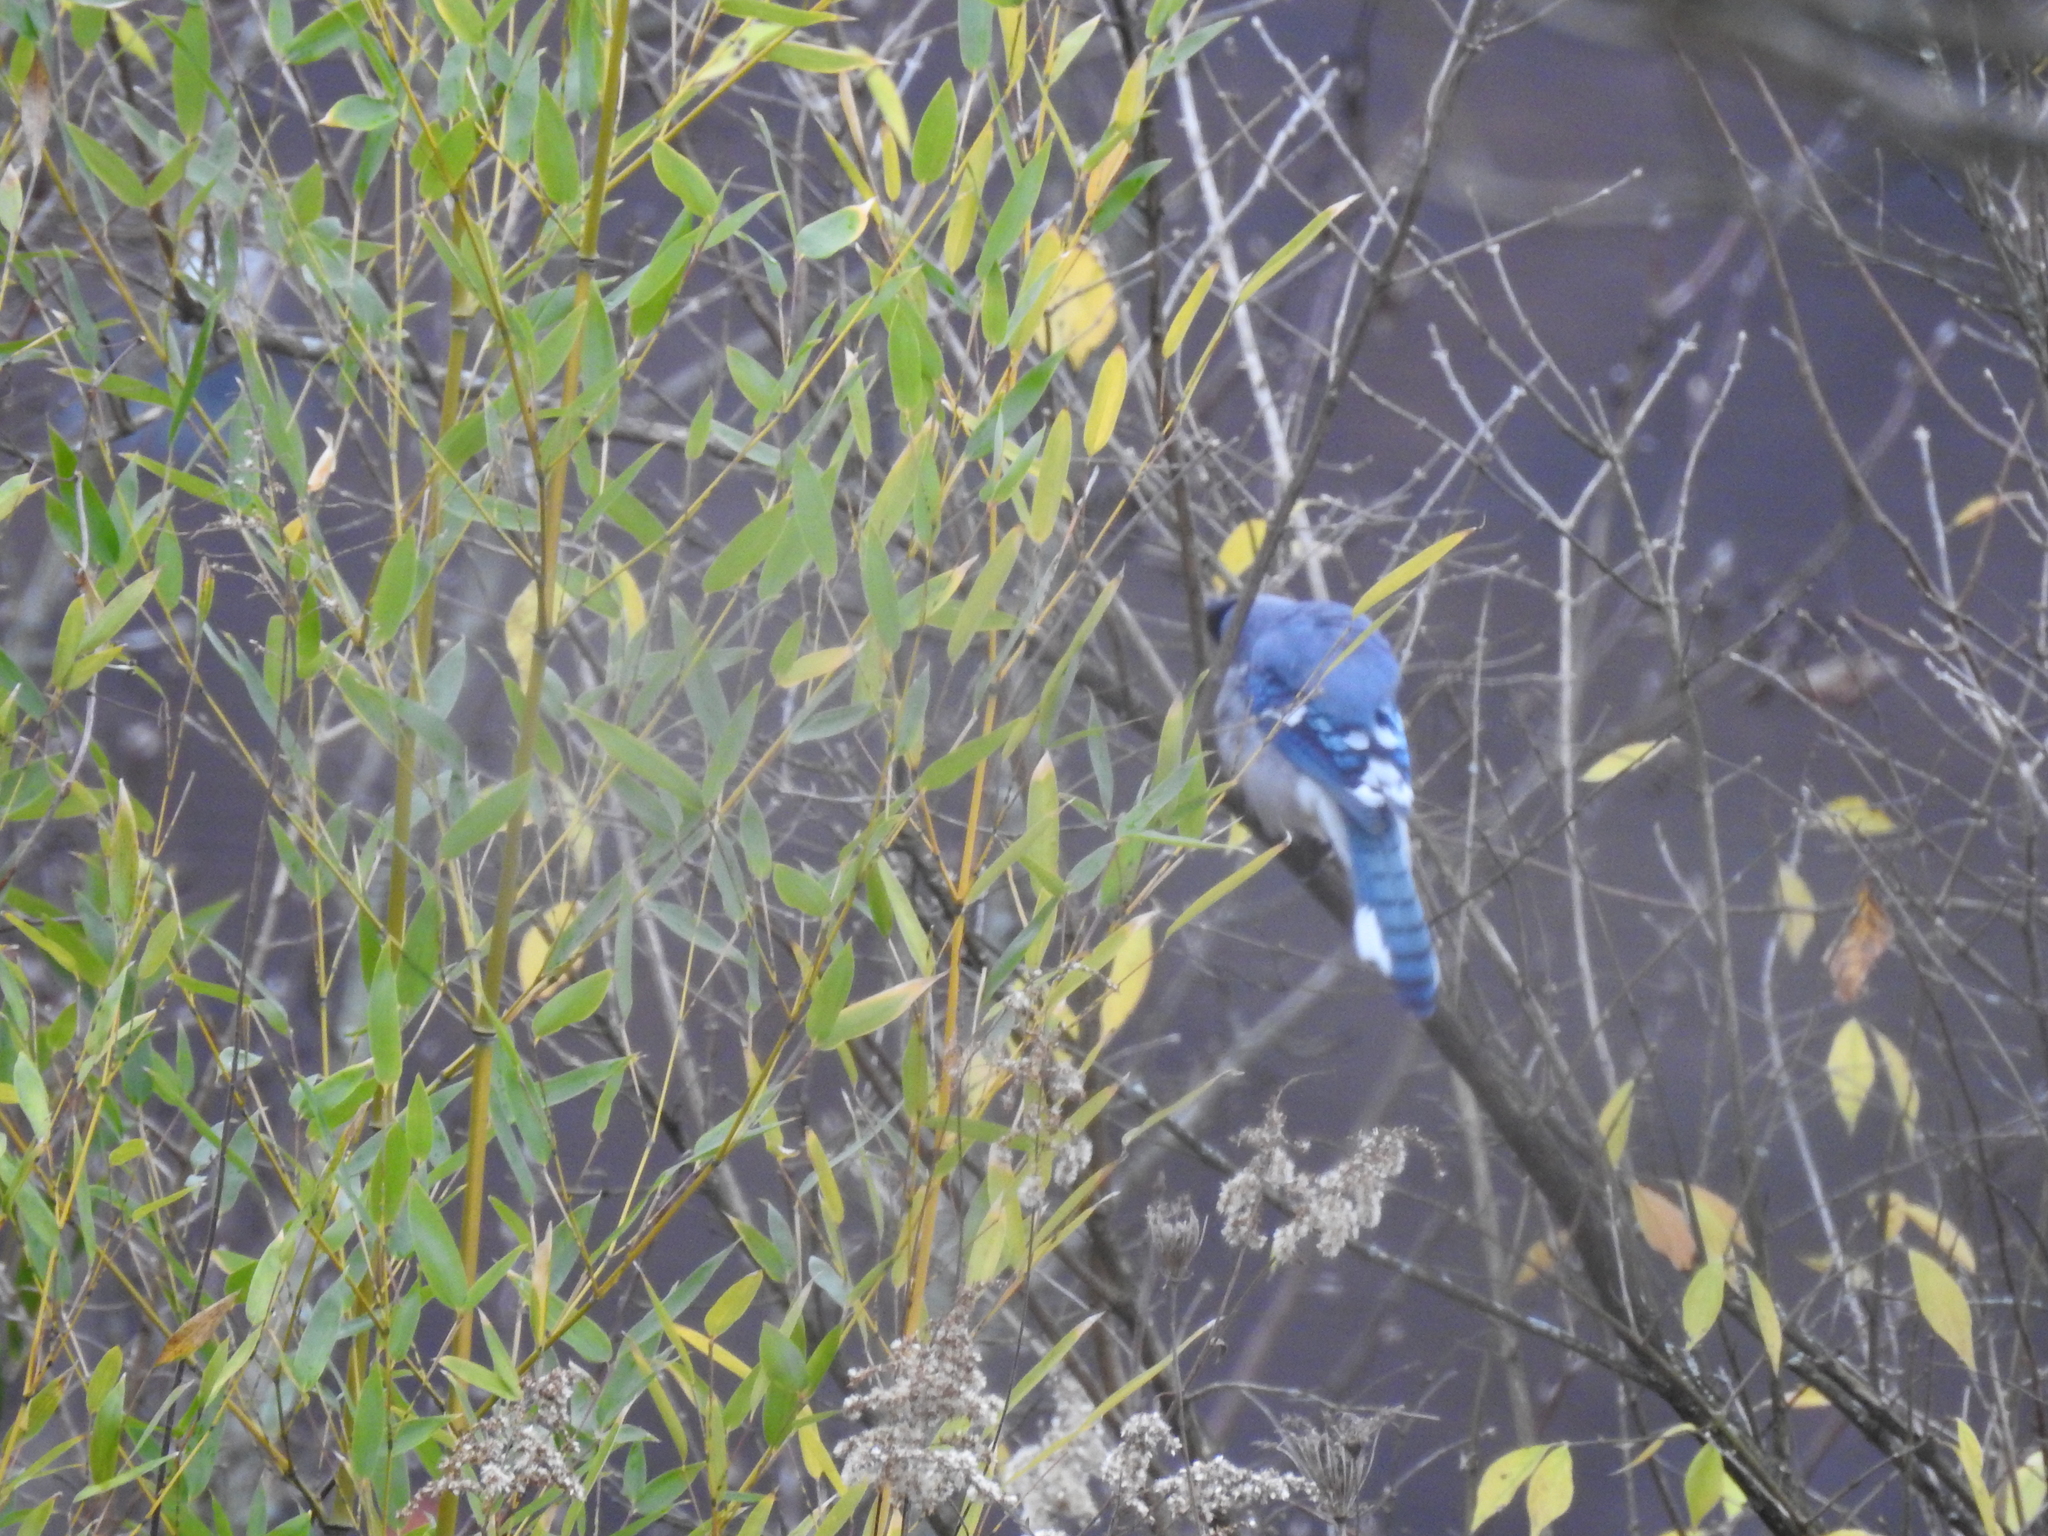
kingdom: Animalia
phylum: Chordata
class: Aves
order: Passeriformes
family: Corvidae
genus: Cyanocitta
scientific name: Cyanocitta cristata
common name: Blue jay
